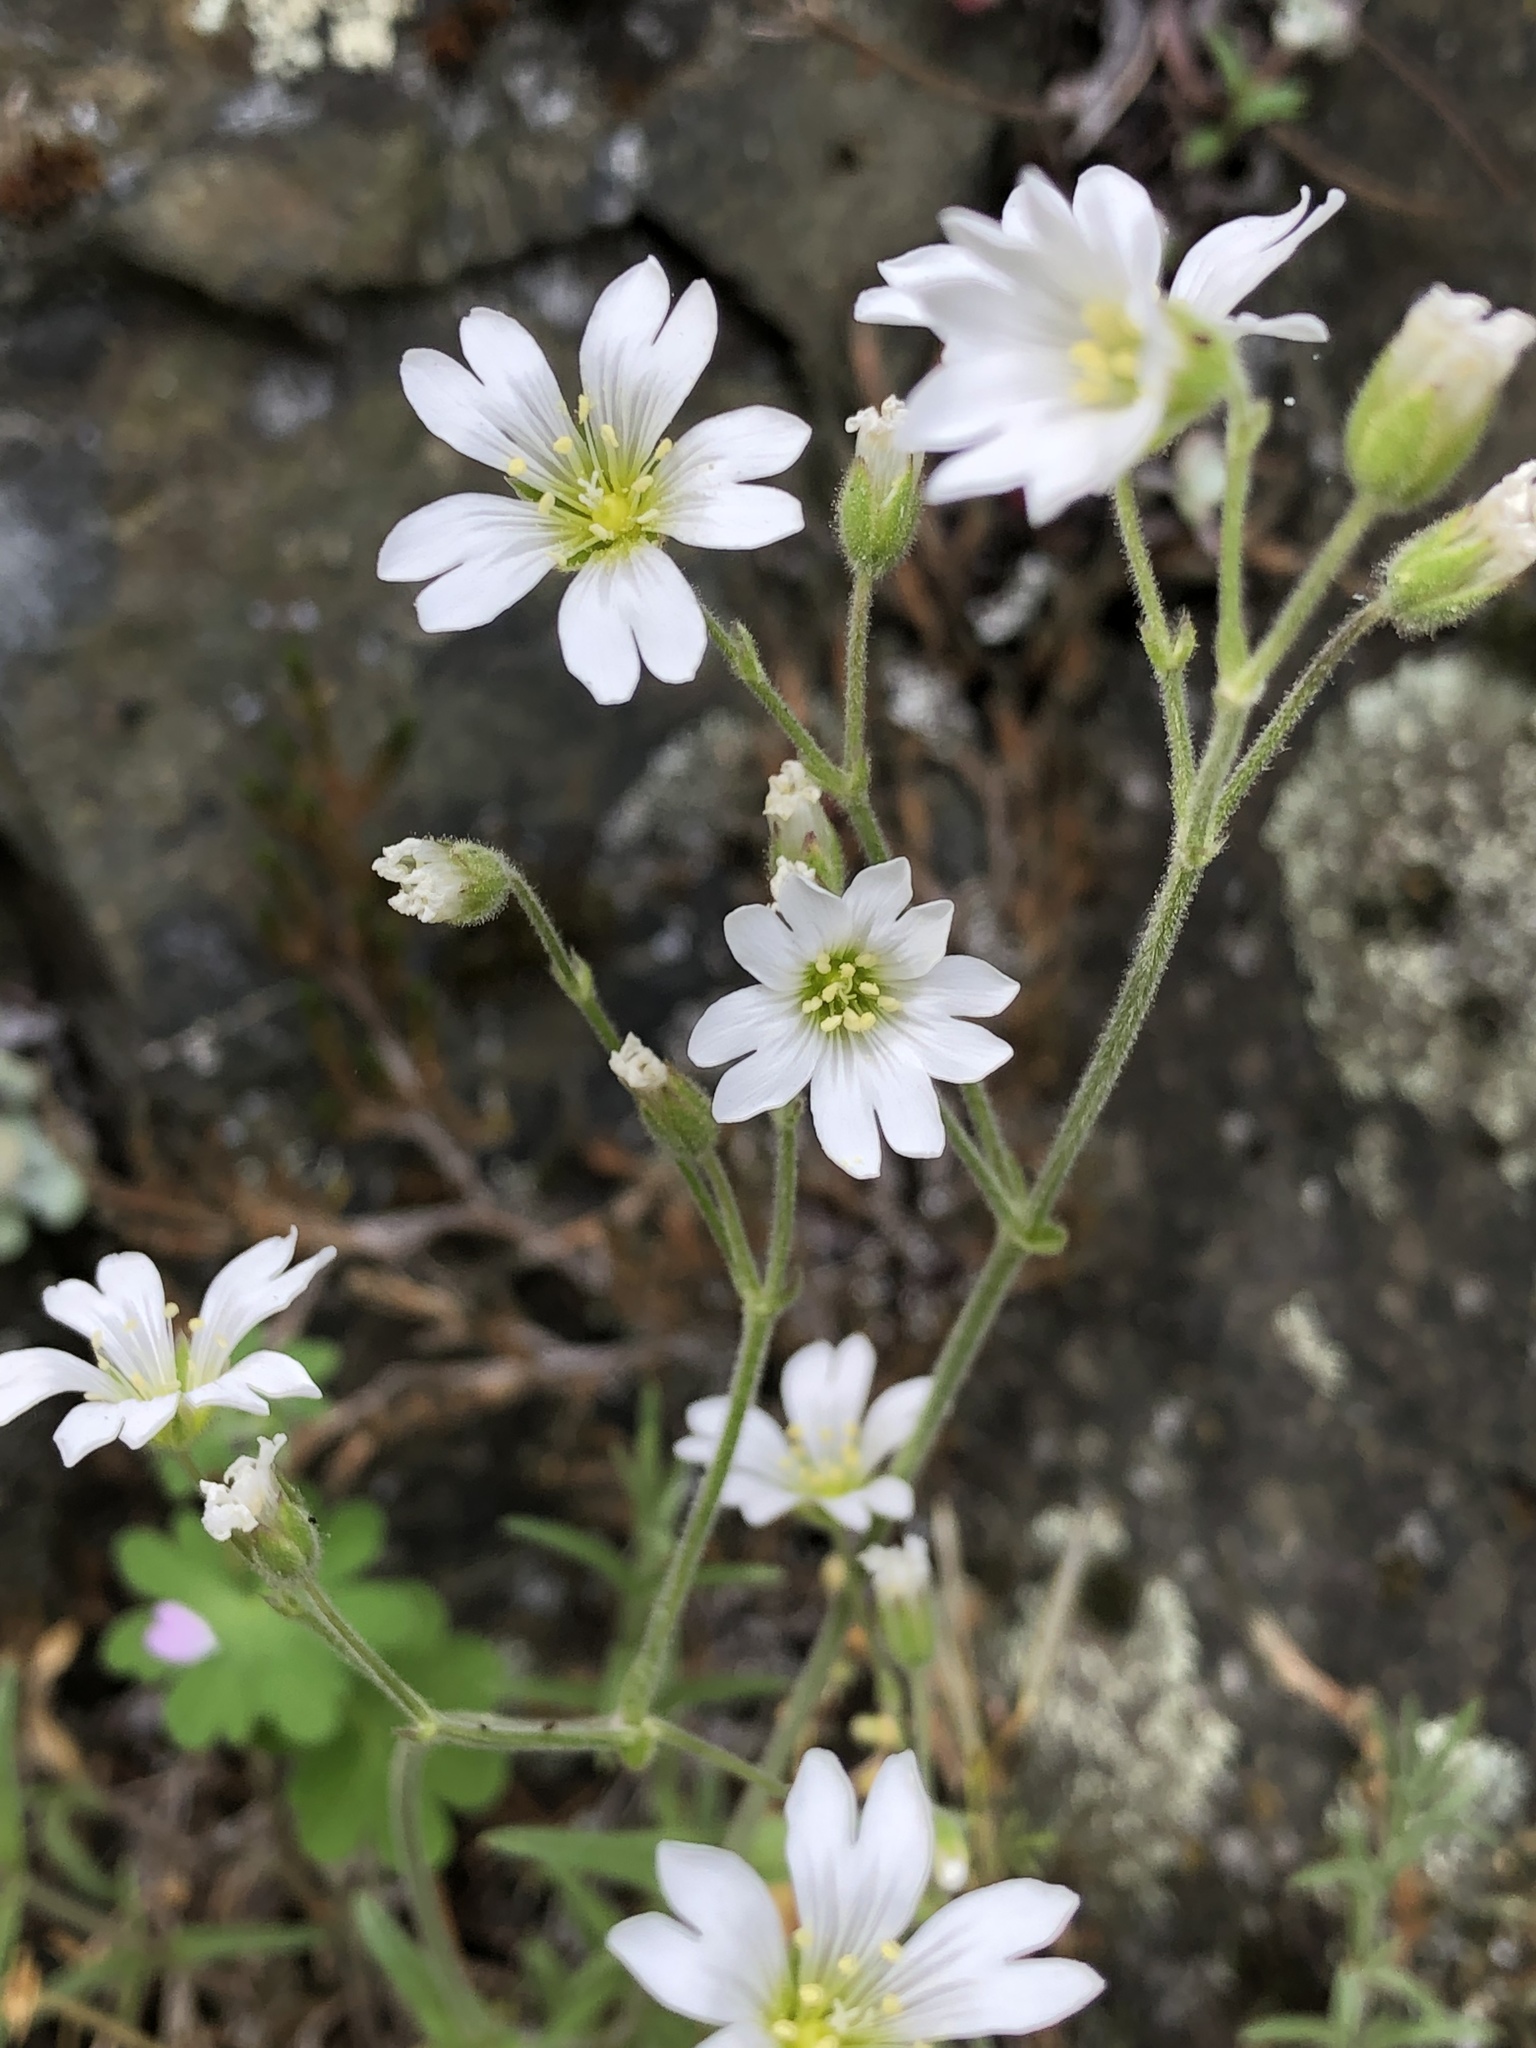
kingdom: Plantae
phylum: Tracheophyta
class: Magnoliopsida
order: Caryophyllales
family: Caryophyllaceae
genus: Cerastium
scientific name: Cerastium arvense
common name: Field mouse-ear
